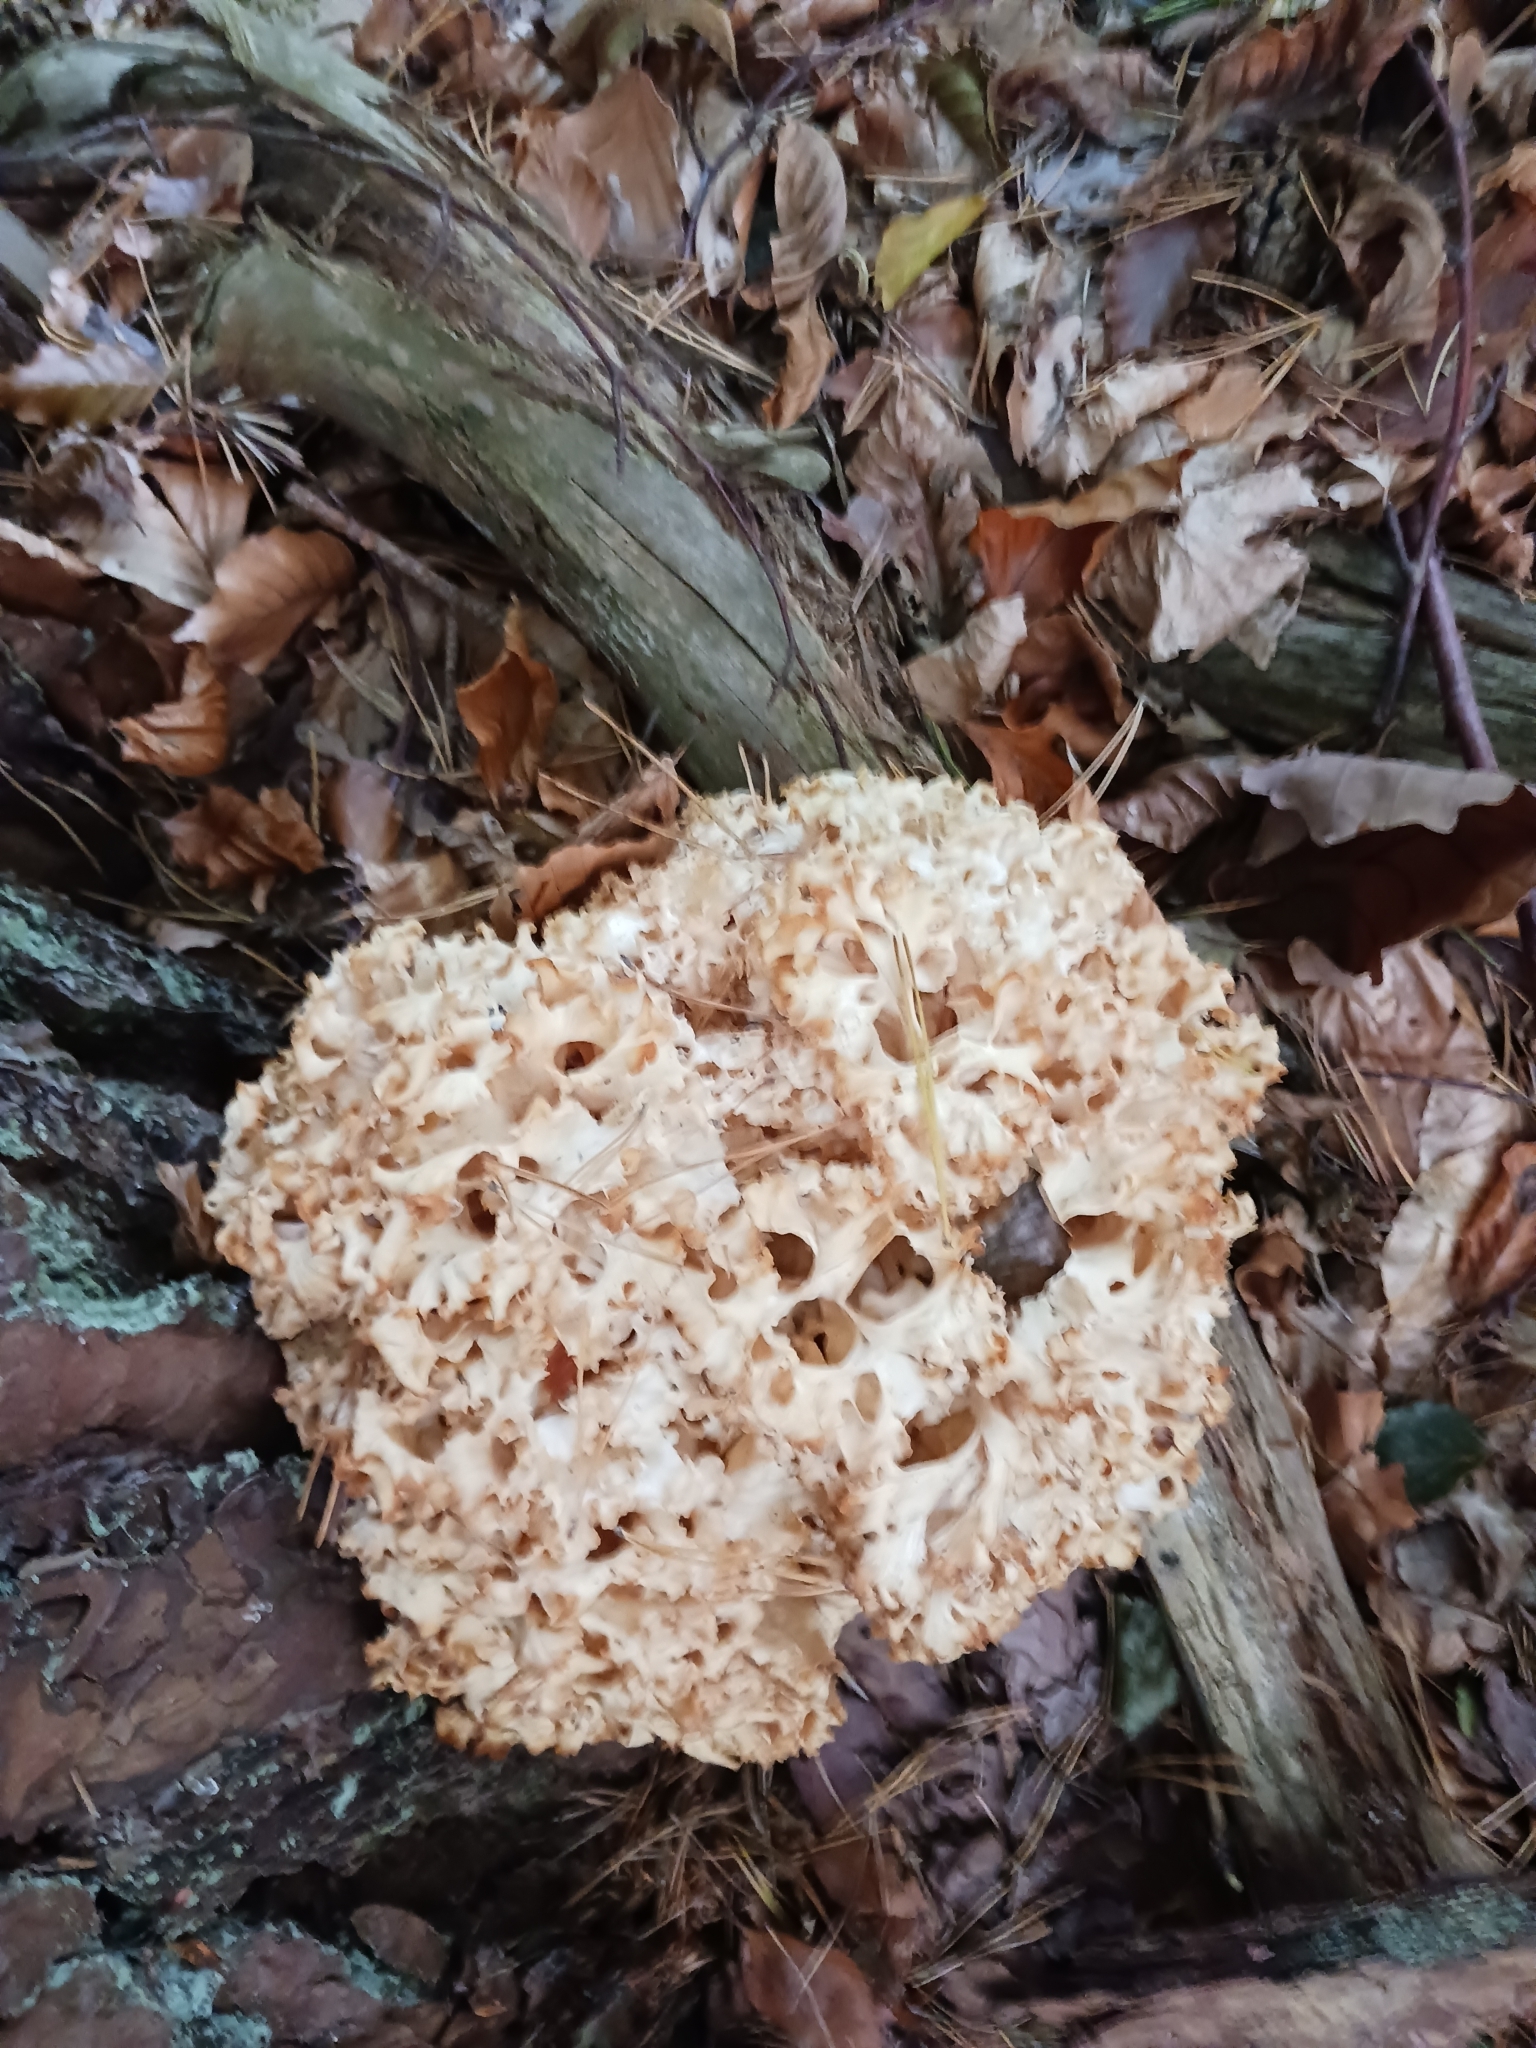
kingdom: Fungi
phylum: Basidiomycota
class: Agaricomycetes
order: Polyporales
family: Sparassidaceae
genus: Sparassis
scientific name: Sparassis crispa
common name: Brain fungus
